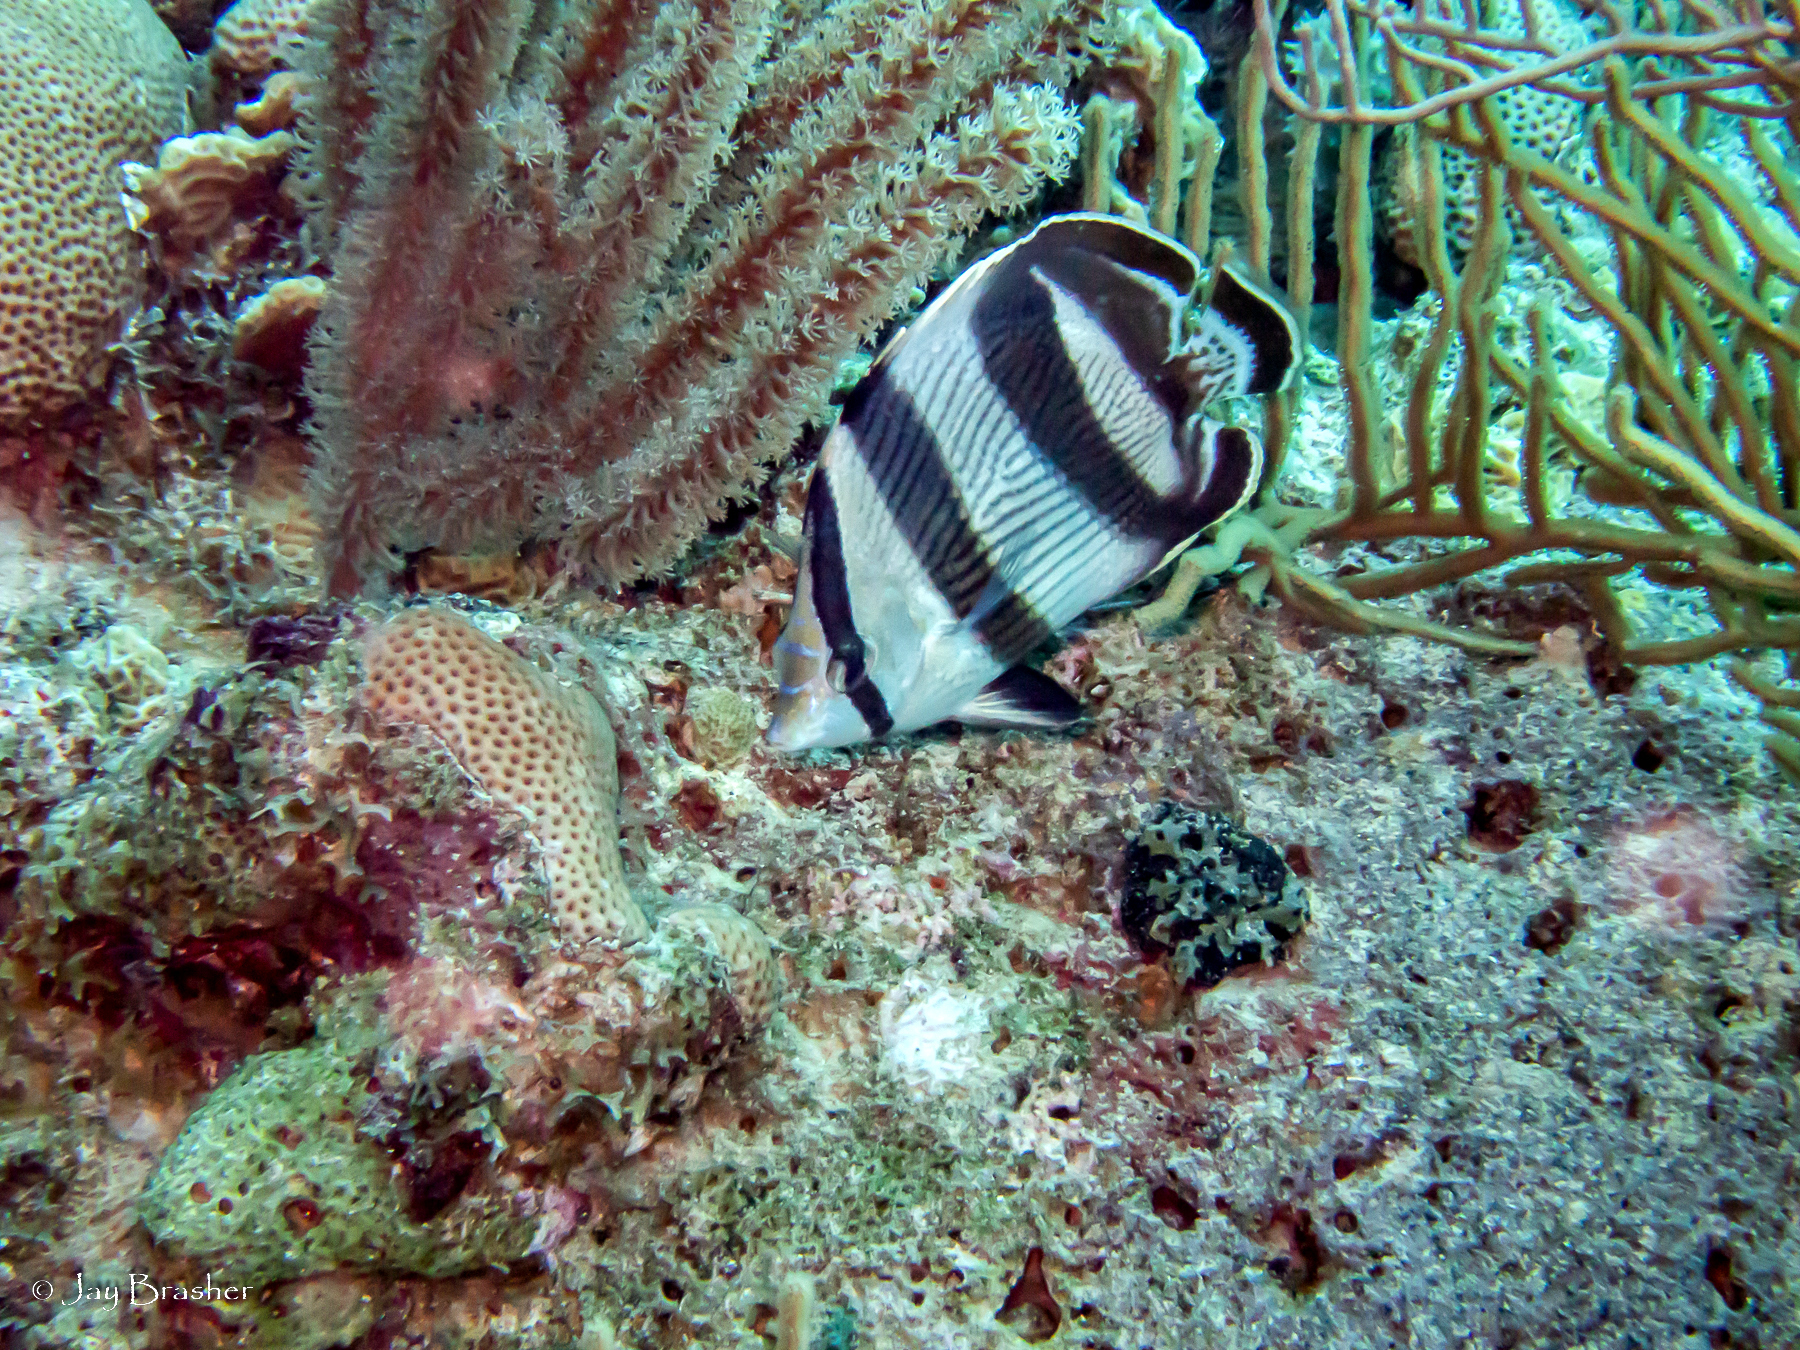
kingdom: Animalia
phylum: Chordata
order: Perciformes
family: Chaetodontidae
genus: Chaetodon
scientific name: Chaetodon striatus
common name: Banded butterflyfish
